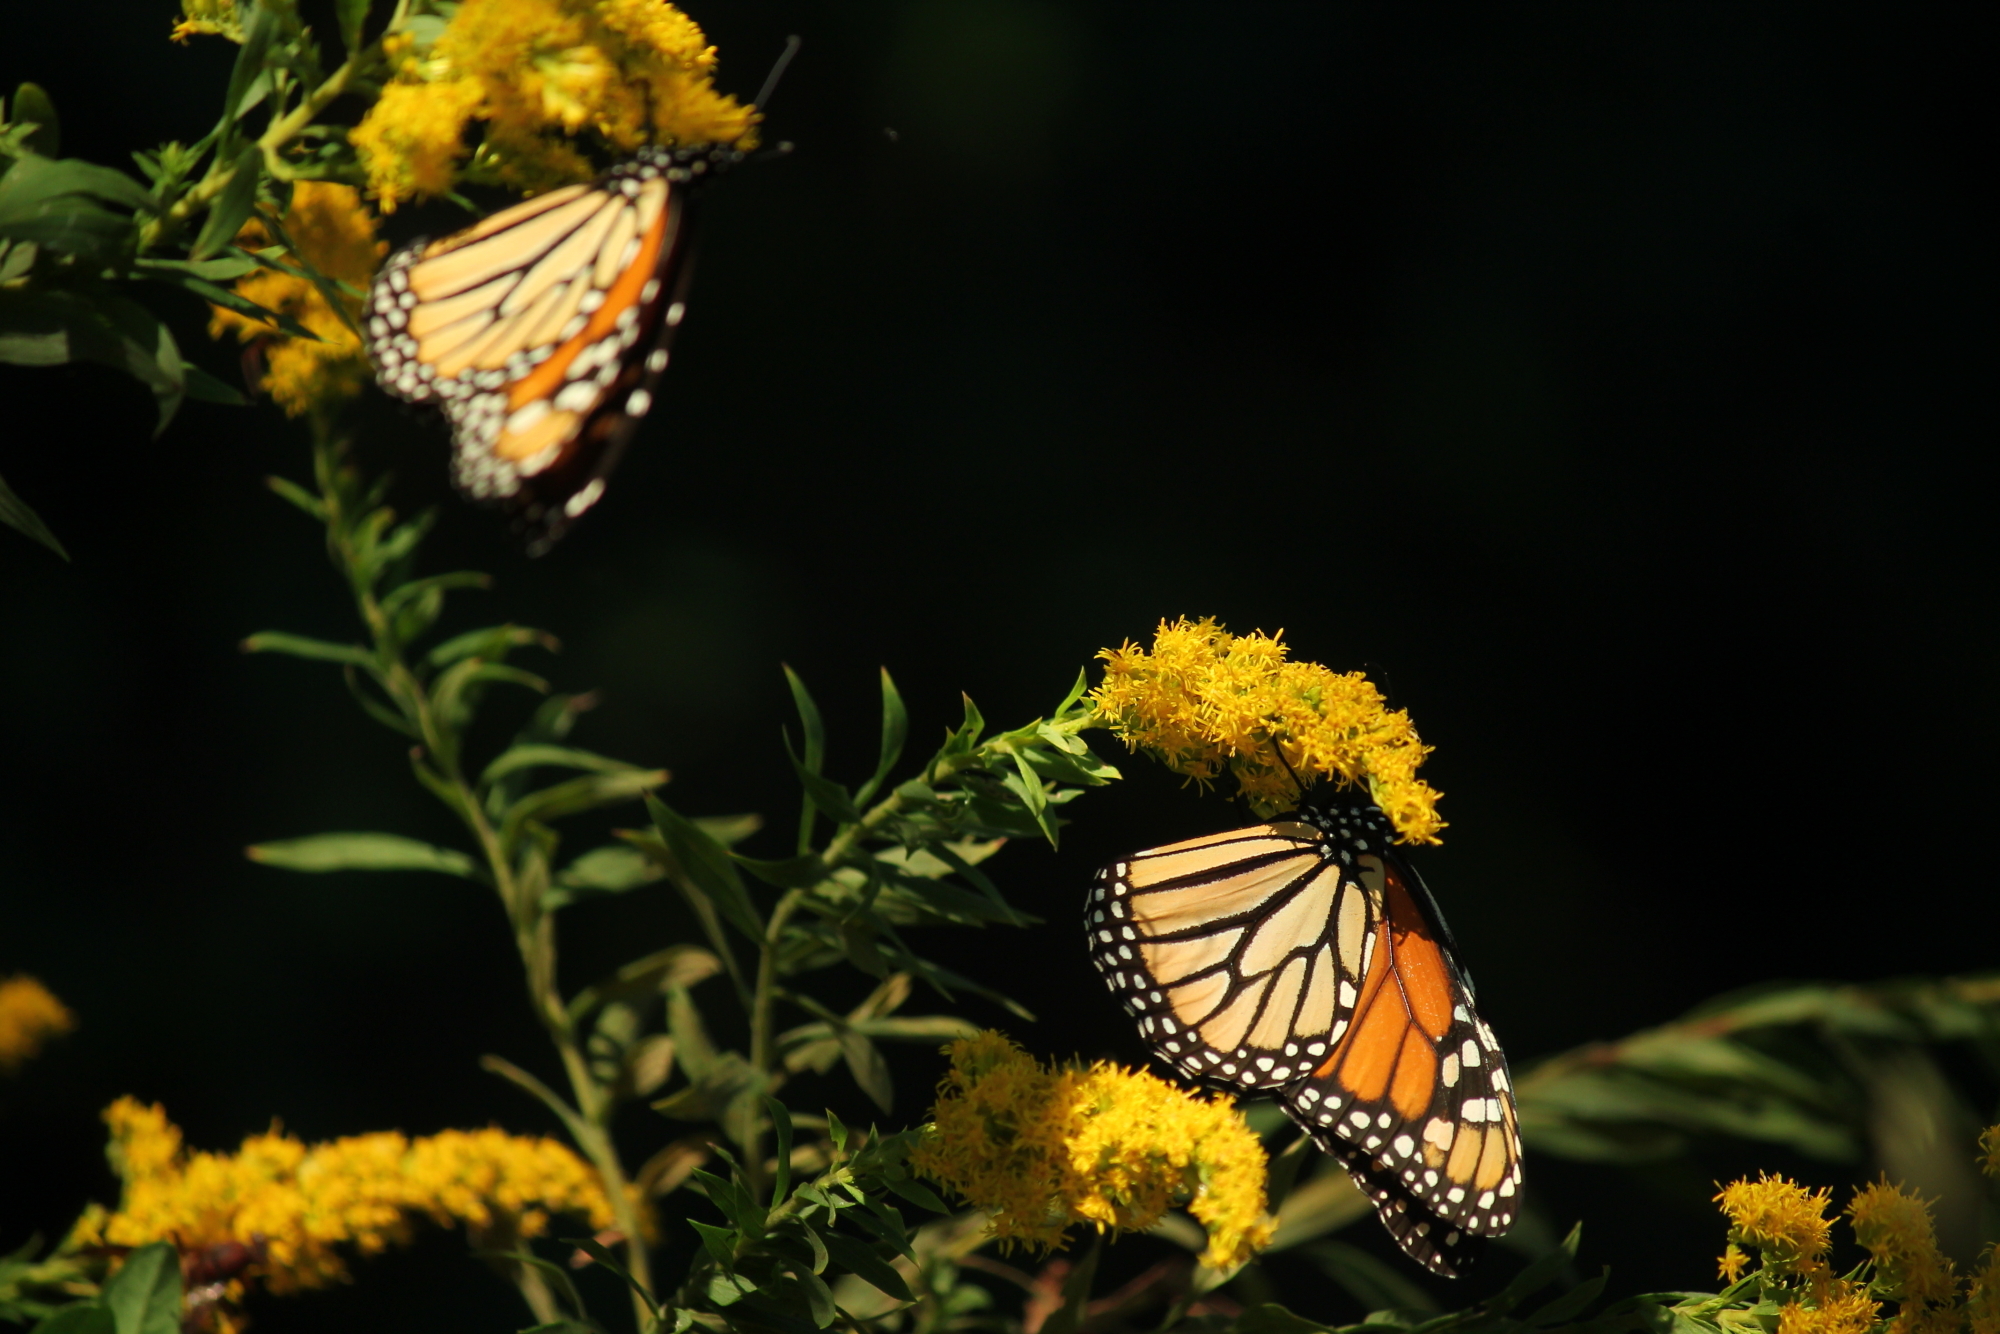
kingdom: Animalia
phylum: Arthropoda
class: Insecta
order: Lepidoptera
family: Nymphalidae
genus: Danaus
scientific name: Danaus plexippus
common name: Monarch
